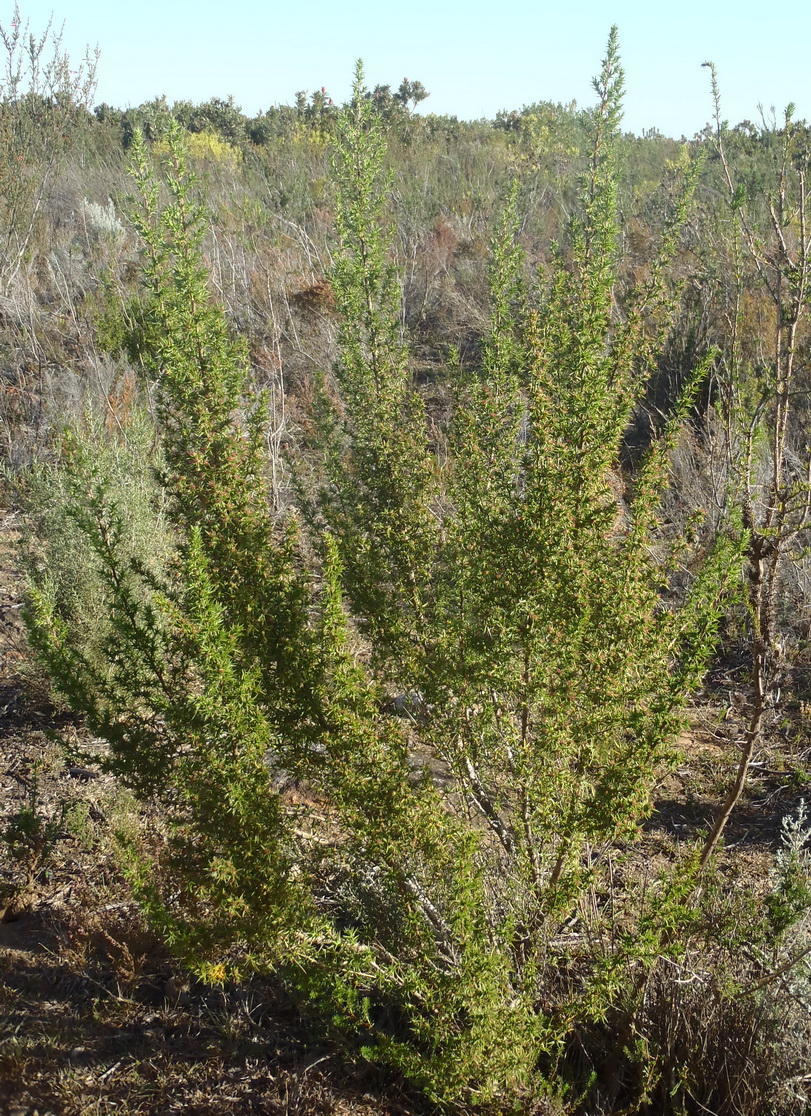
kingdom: Plantae
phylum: Tracheophyta
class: Magnoliopsida
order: Rosales
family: Rosaceae
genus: Cliffortia
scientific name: Cliffortia ruscifolia
